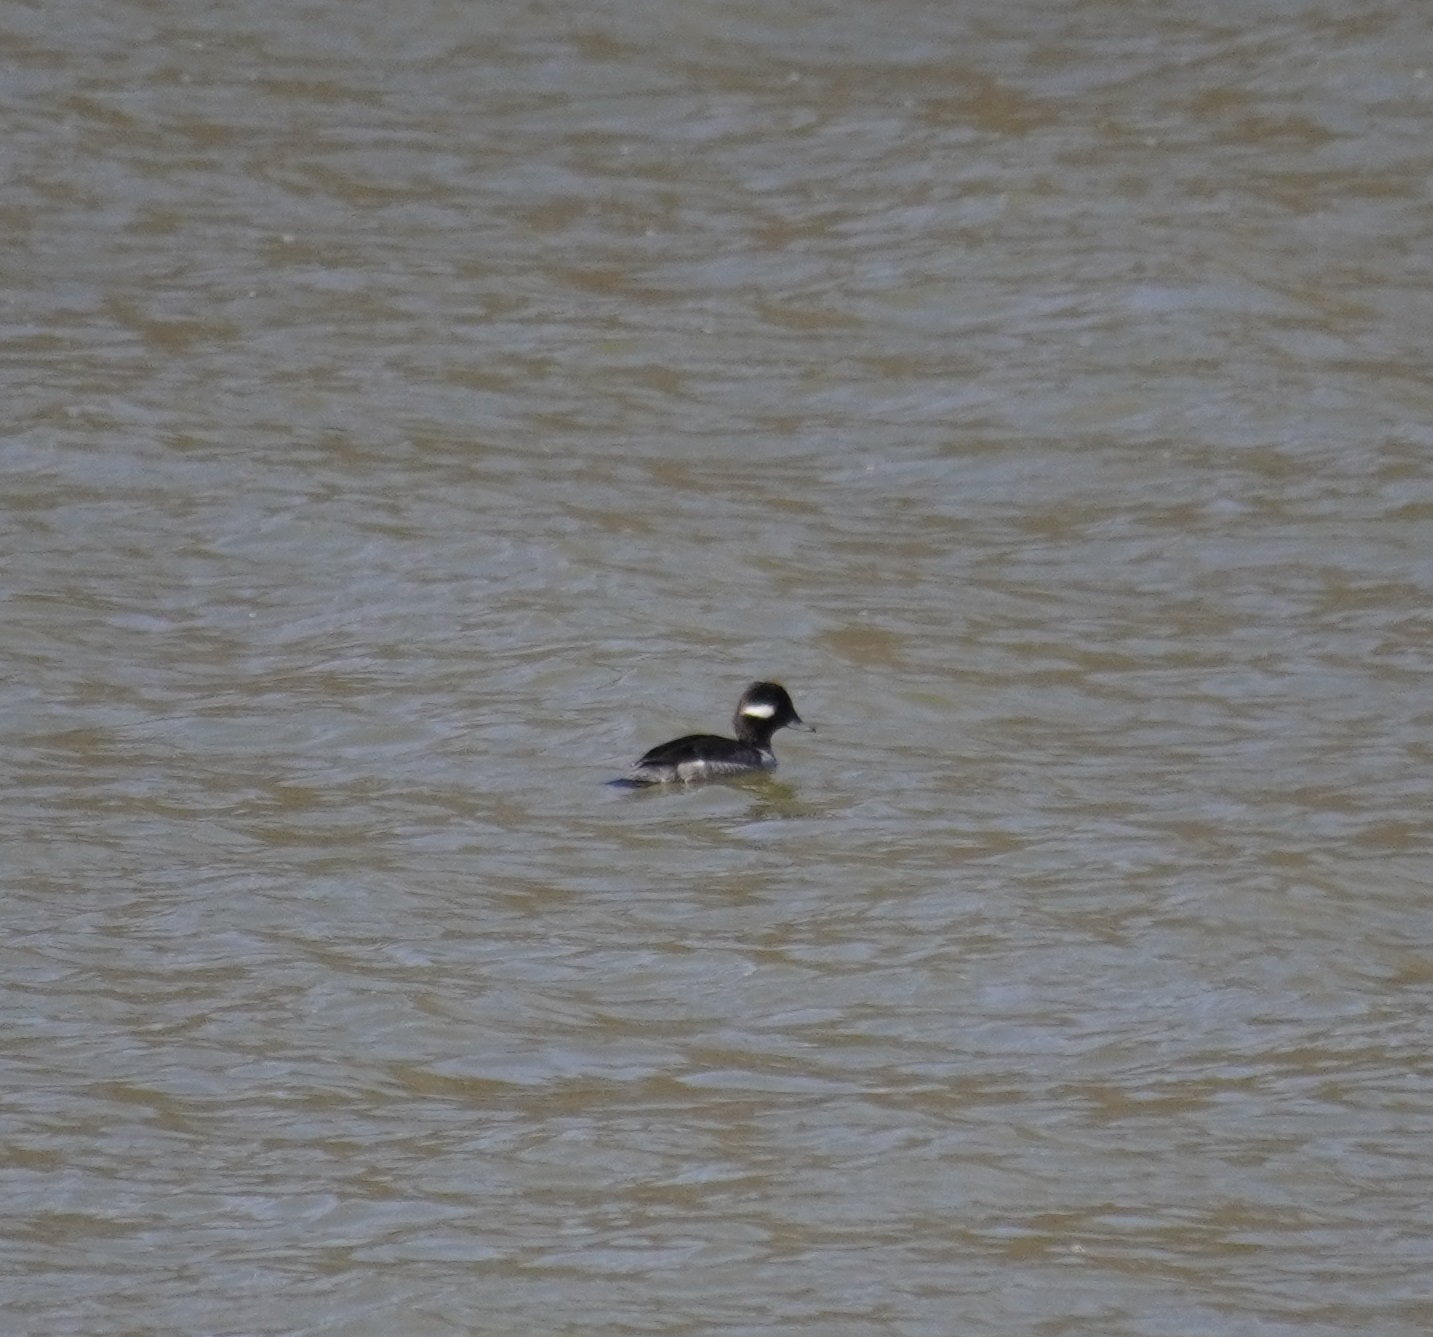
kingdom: Animalia
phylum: Chordata
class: Aves
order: Anseriformes
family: Anatidae
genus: Bucephala
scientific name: Bucephala albeola
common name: Bufflehead
